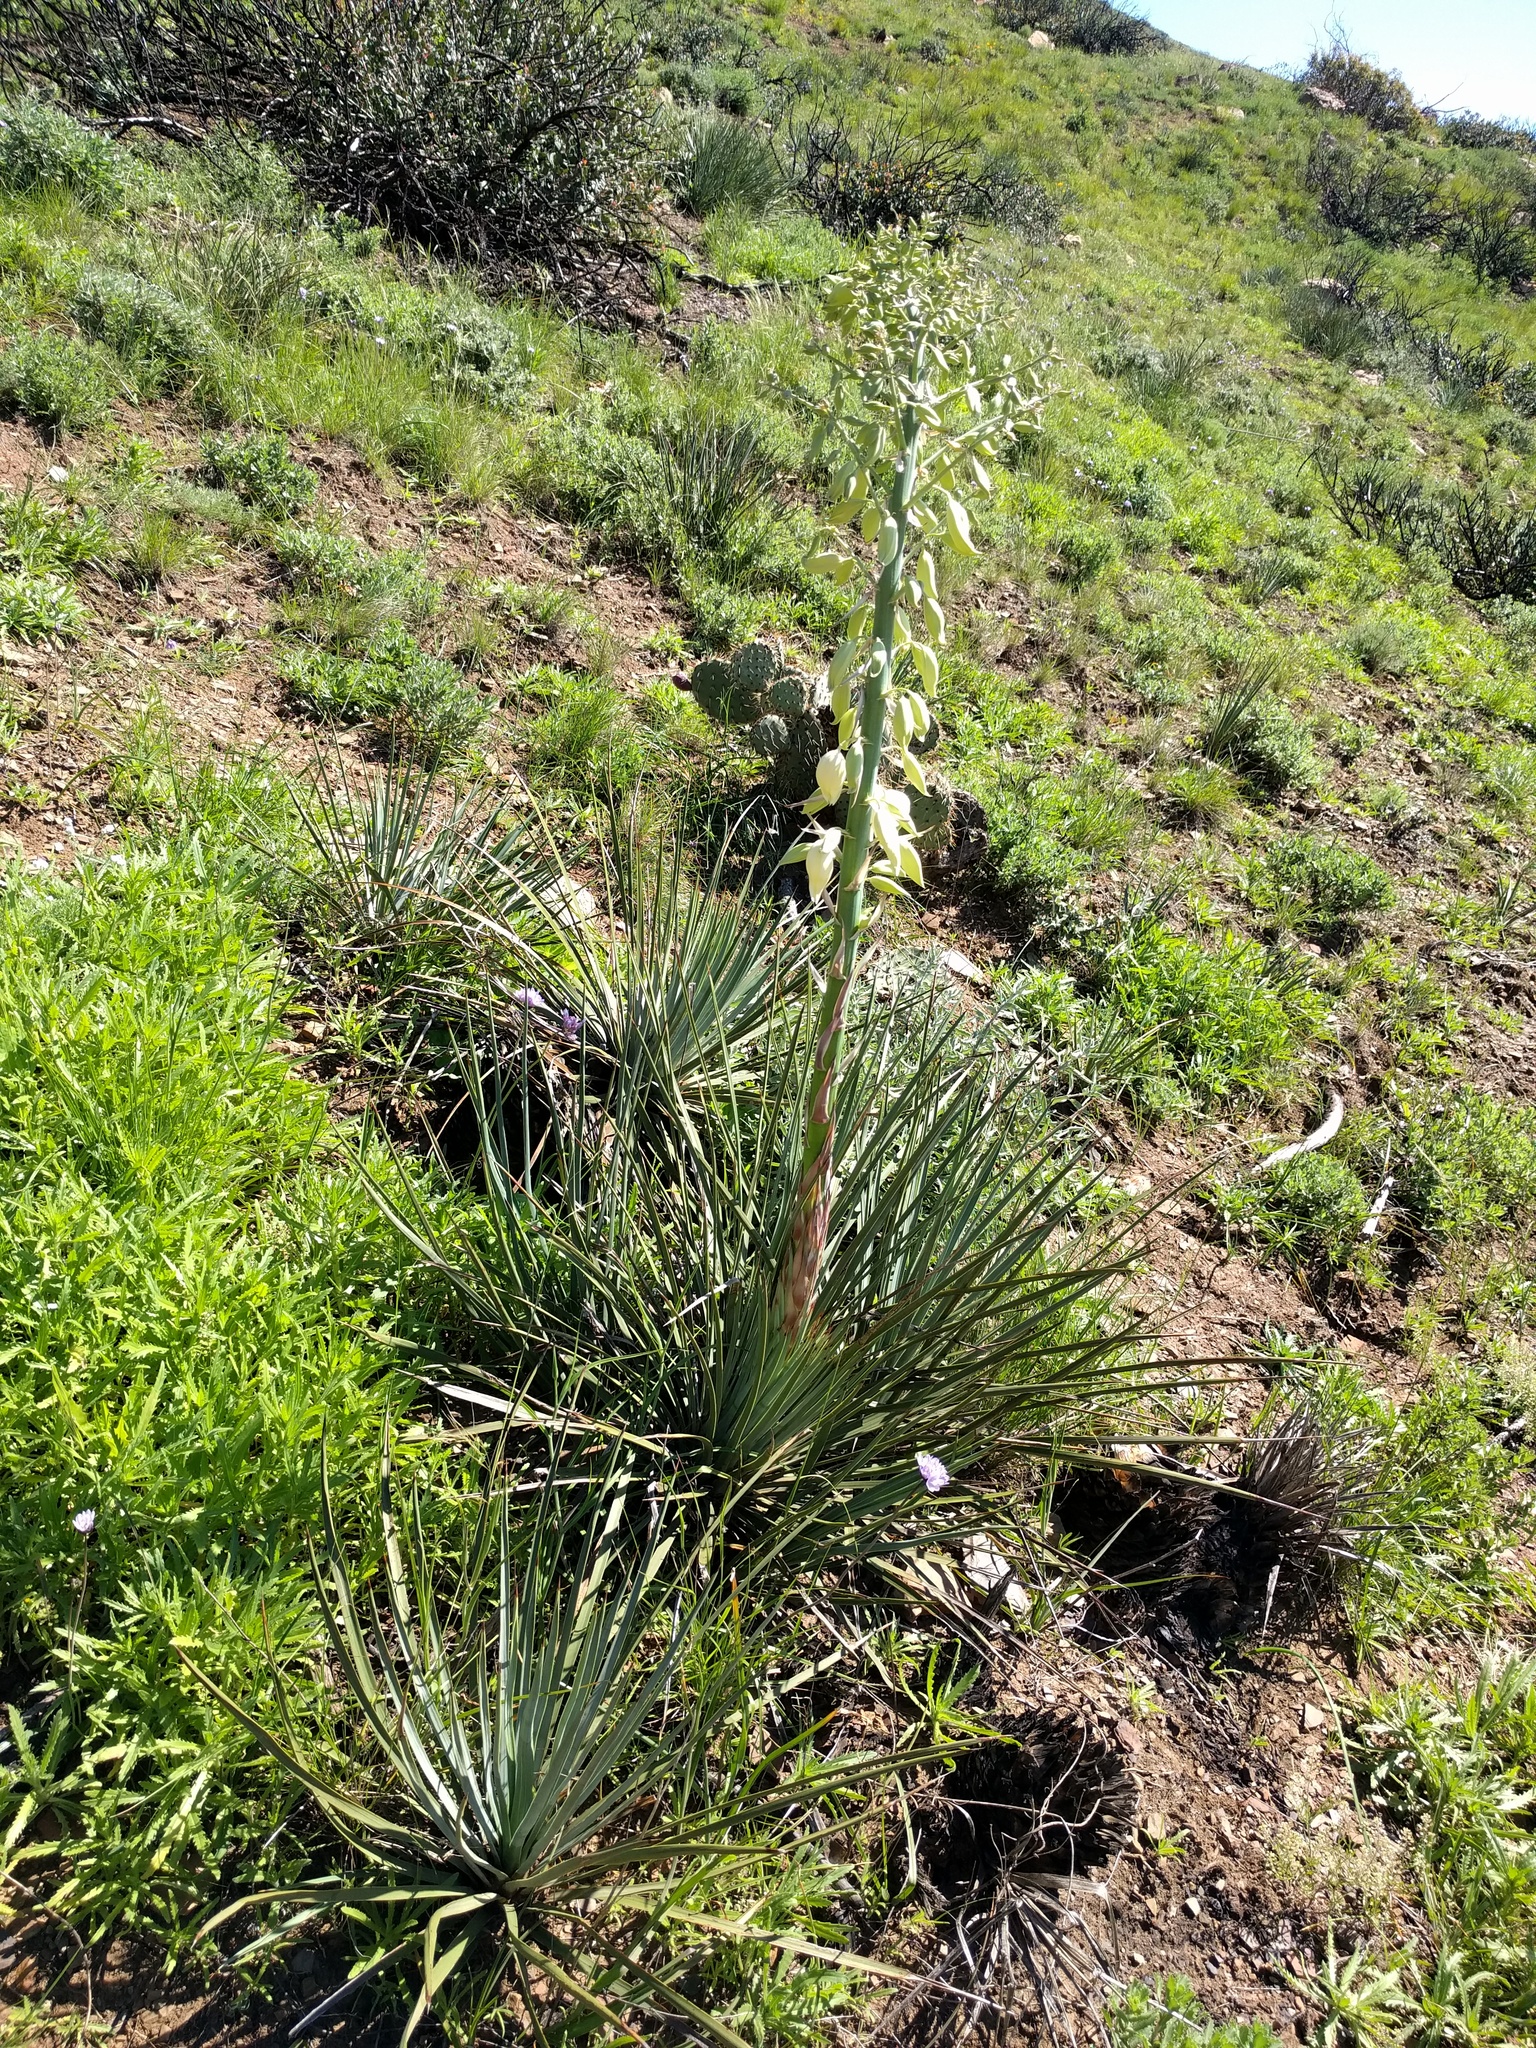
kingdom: Plantae
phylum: Tracheophyta
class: Liliopsida
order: Asparagales
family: Asparagaceae
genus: Hesperoyucca
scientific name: Hesperoyucca whipplei
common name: Our lord's-candle
